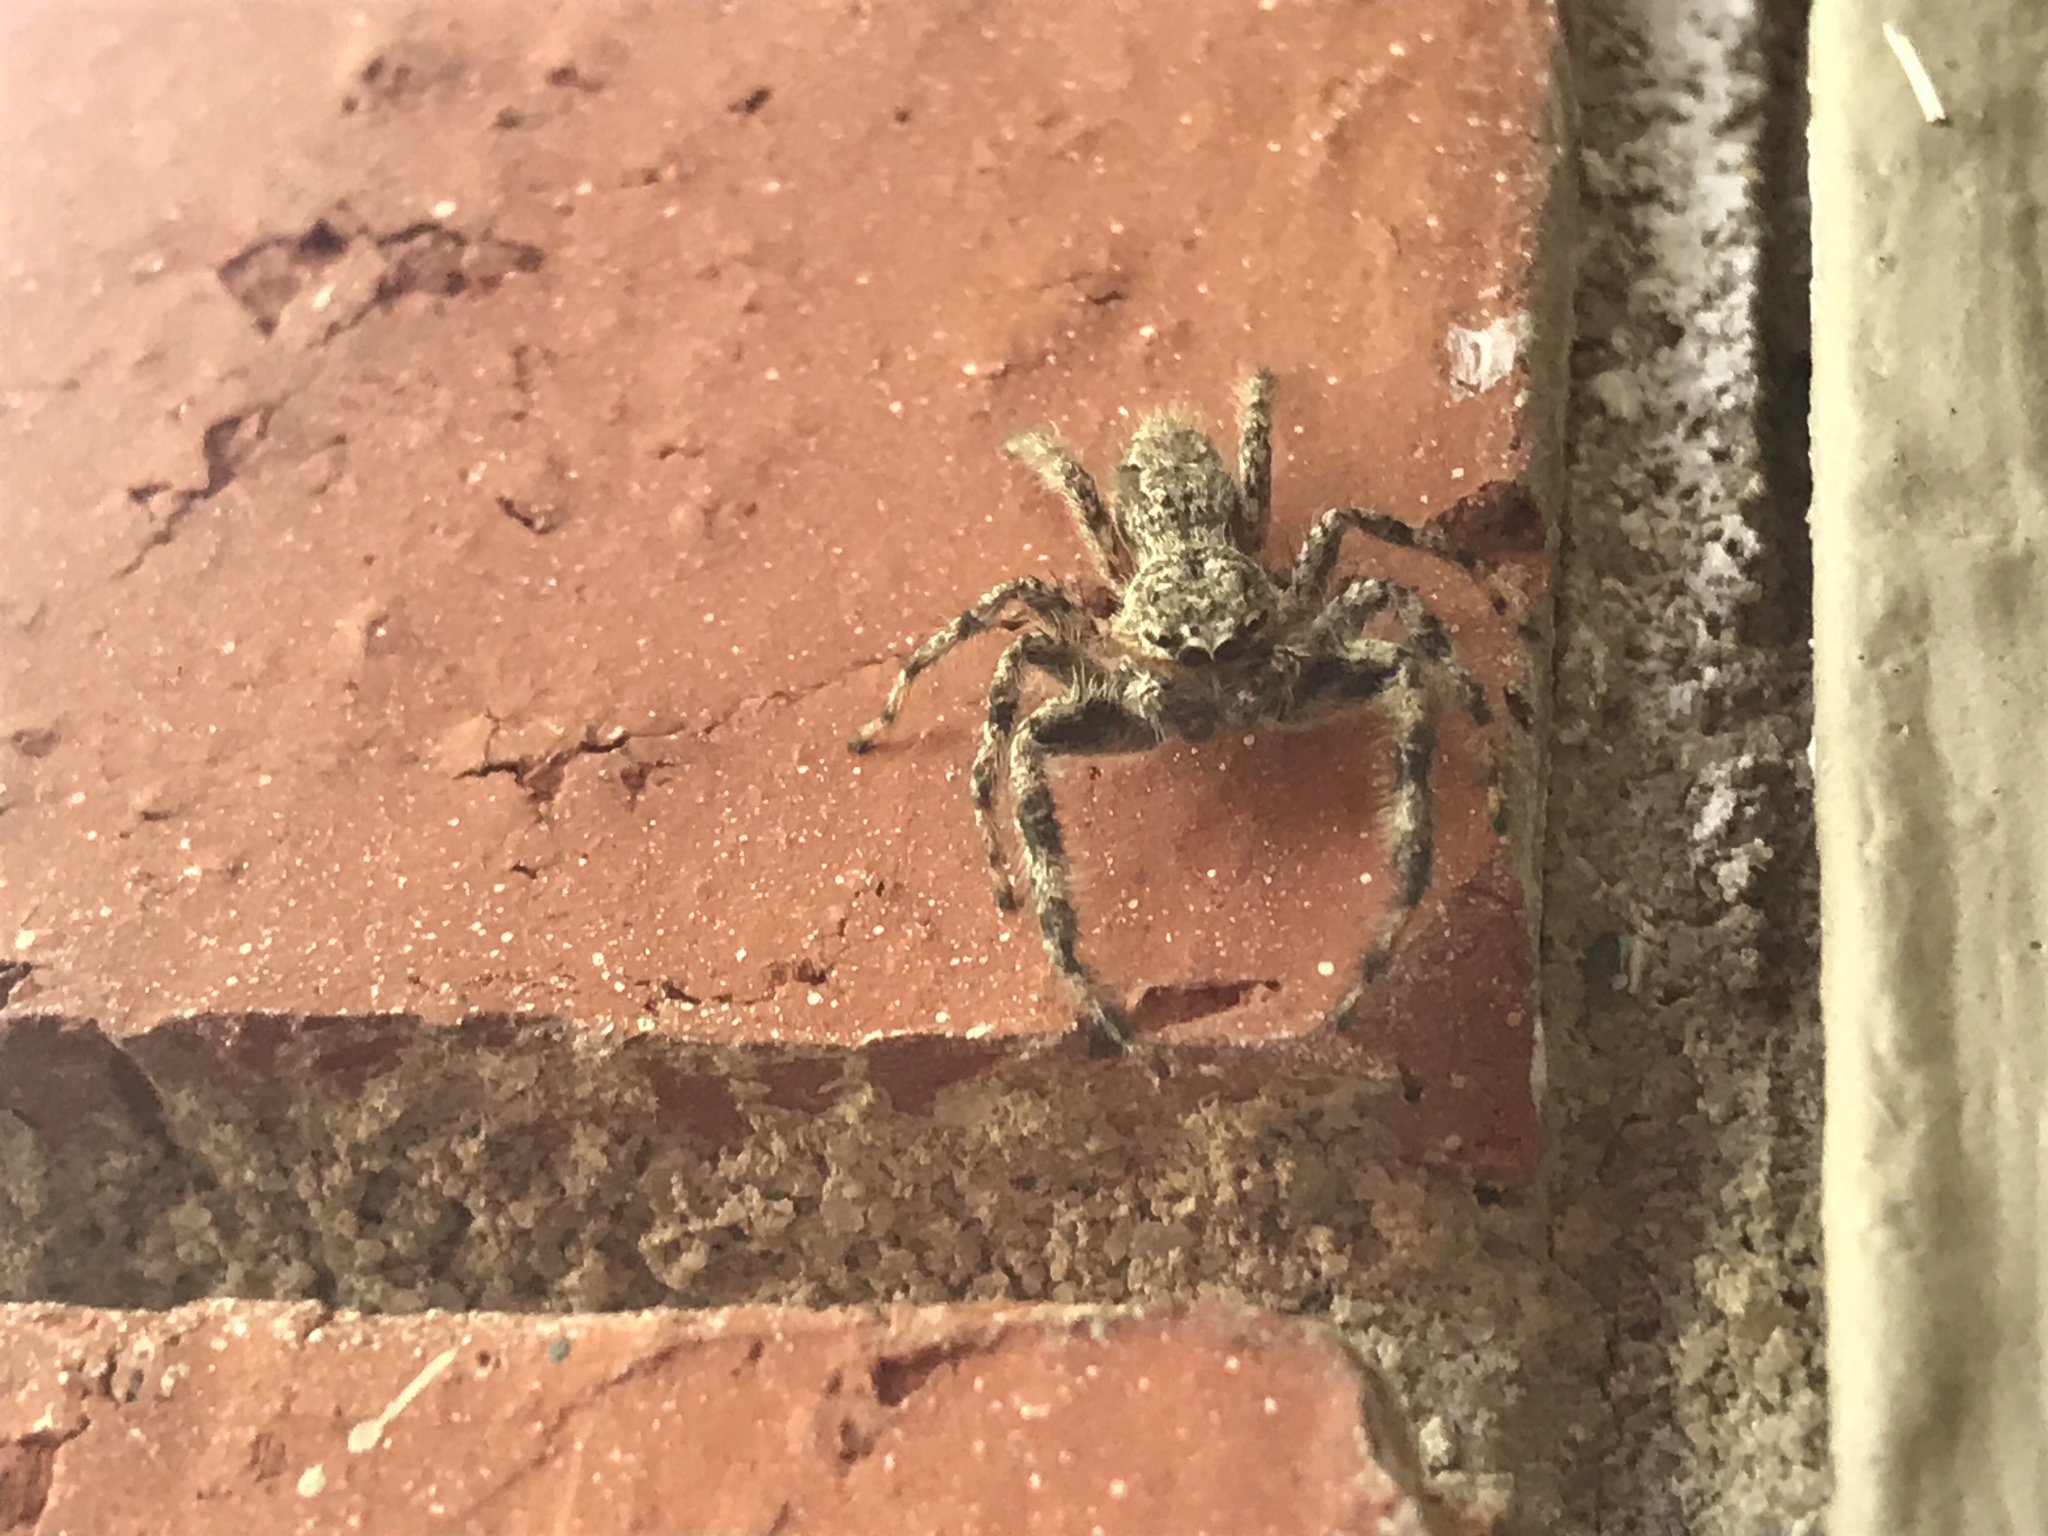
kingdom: Animalia
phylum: Arthropoda
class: Arachnida
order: Araneae
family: Salticidae
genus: Platycryptus
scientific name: Platycryptus undatus
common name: Tan jumping spider
